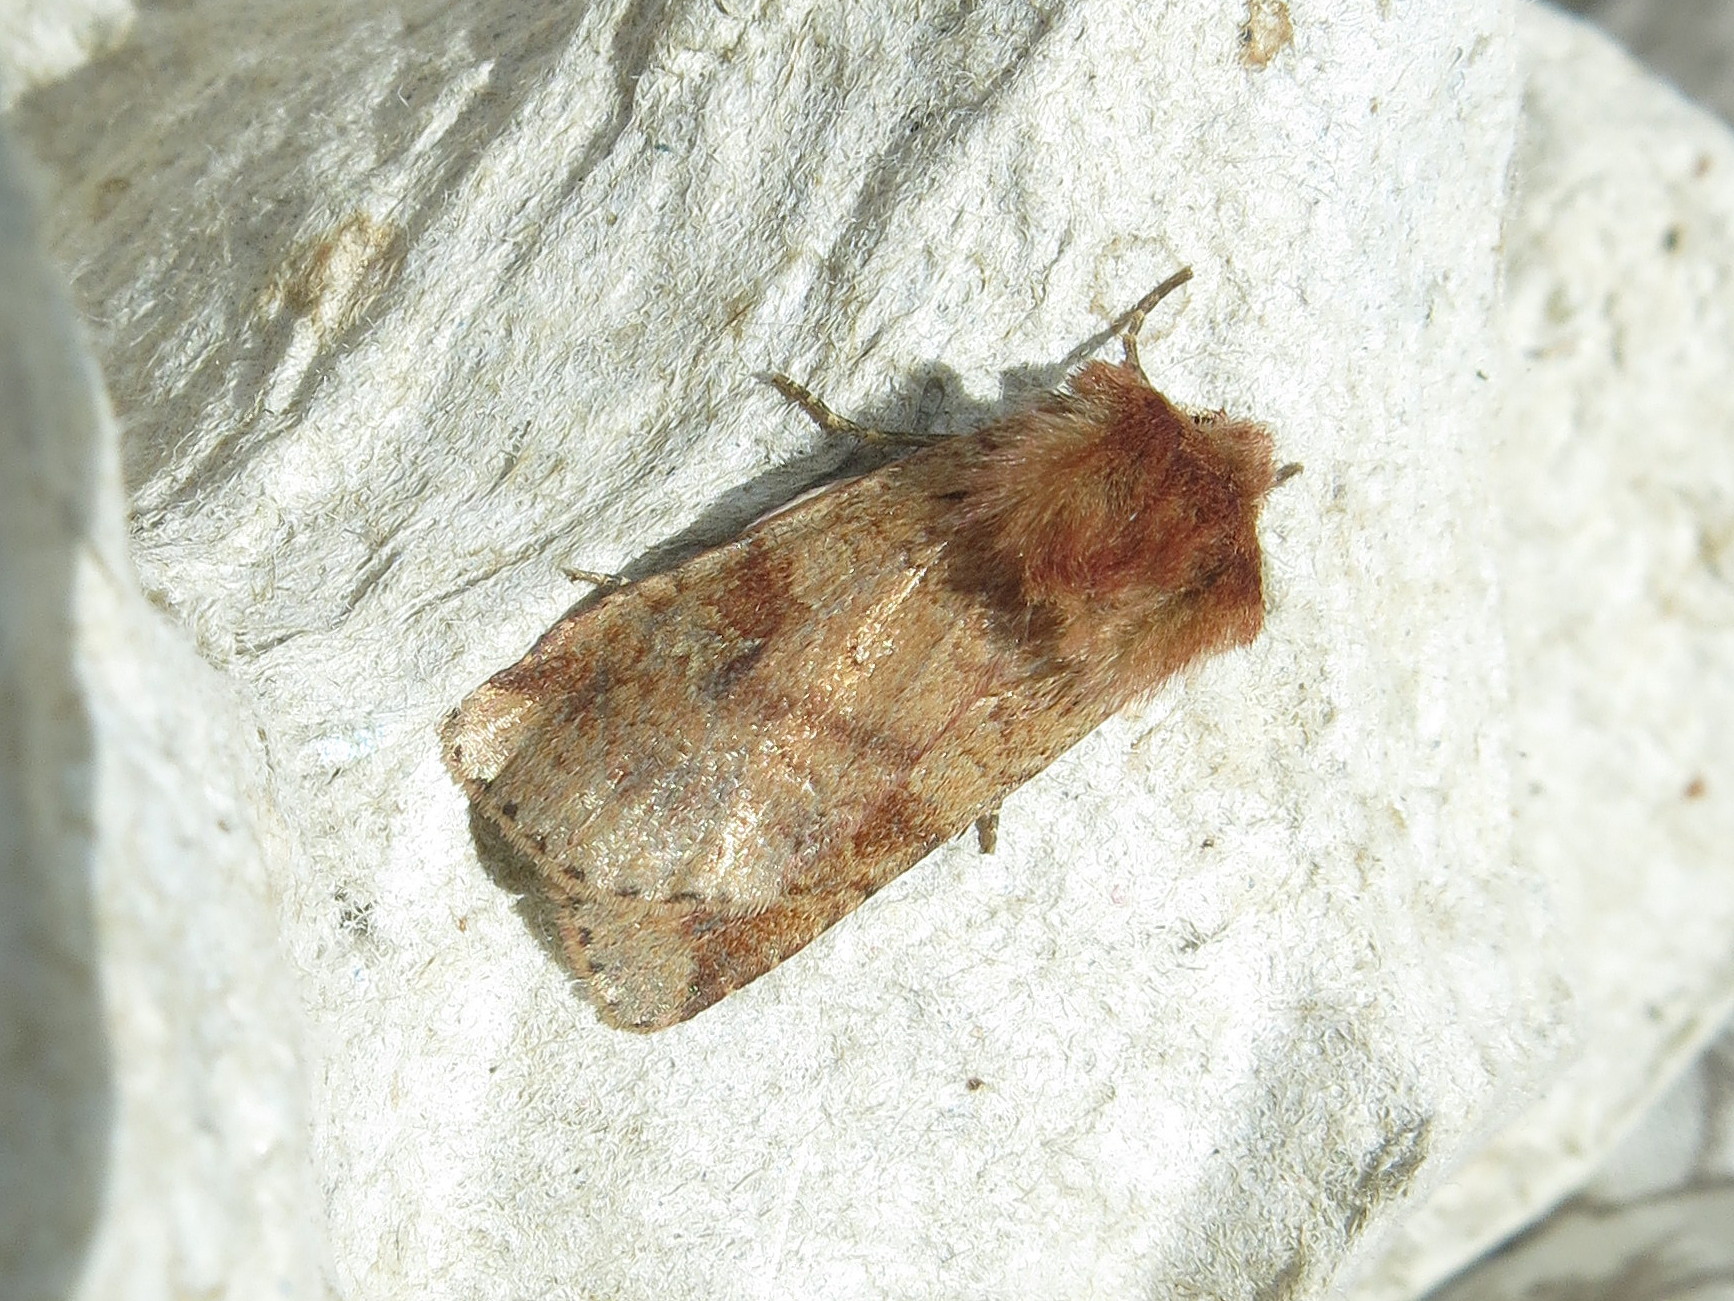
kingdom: Animalia
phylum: Arthropoda
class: Insecta
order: Lepidoptera
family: Noctuidae
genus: Diarsia
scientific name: Diarsia mendica
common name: Ingrailed clay
